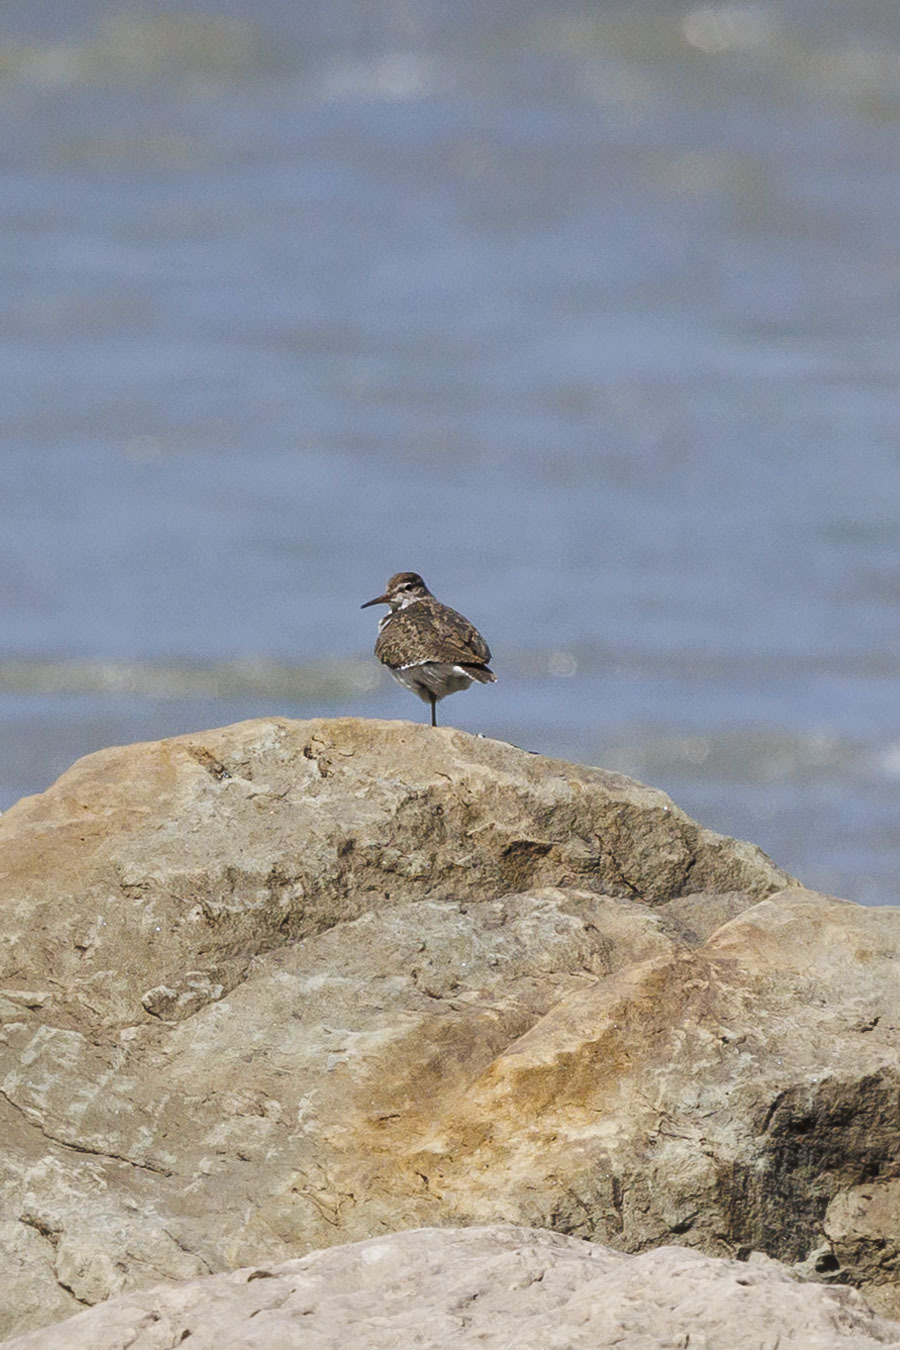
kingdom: Animalia
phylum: Chordata
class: Aves
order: Charadriiformes
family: Scolopacidae
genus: Actitis
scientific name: Actitis hypoleucos
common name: Common sandpiper
